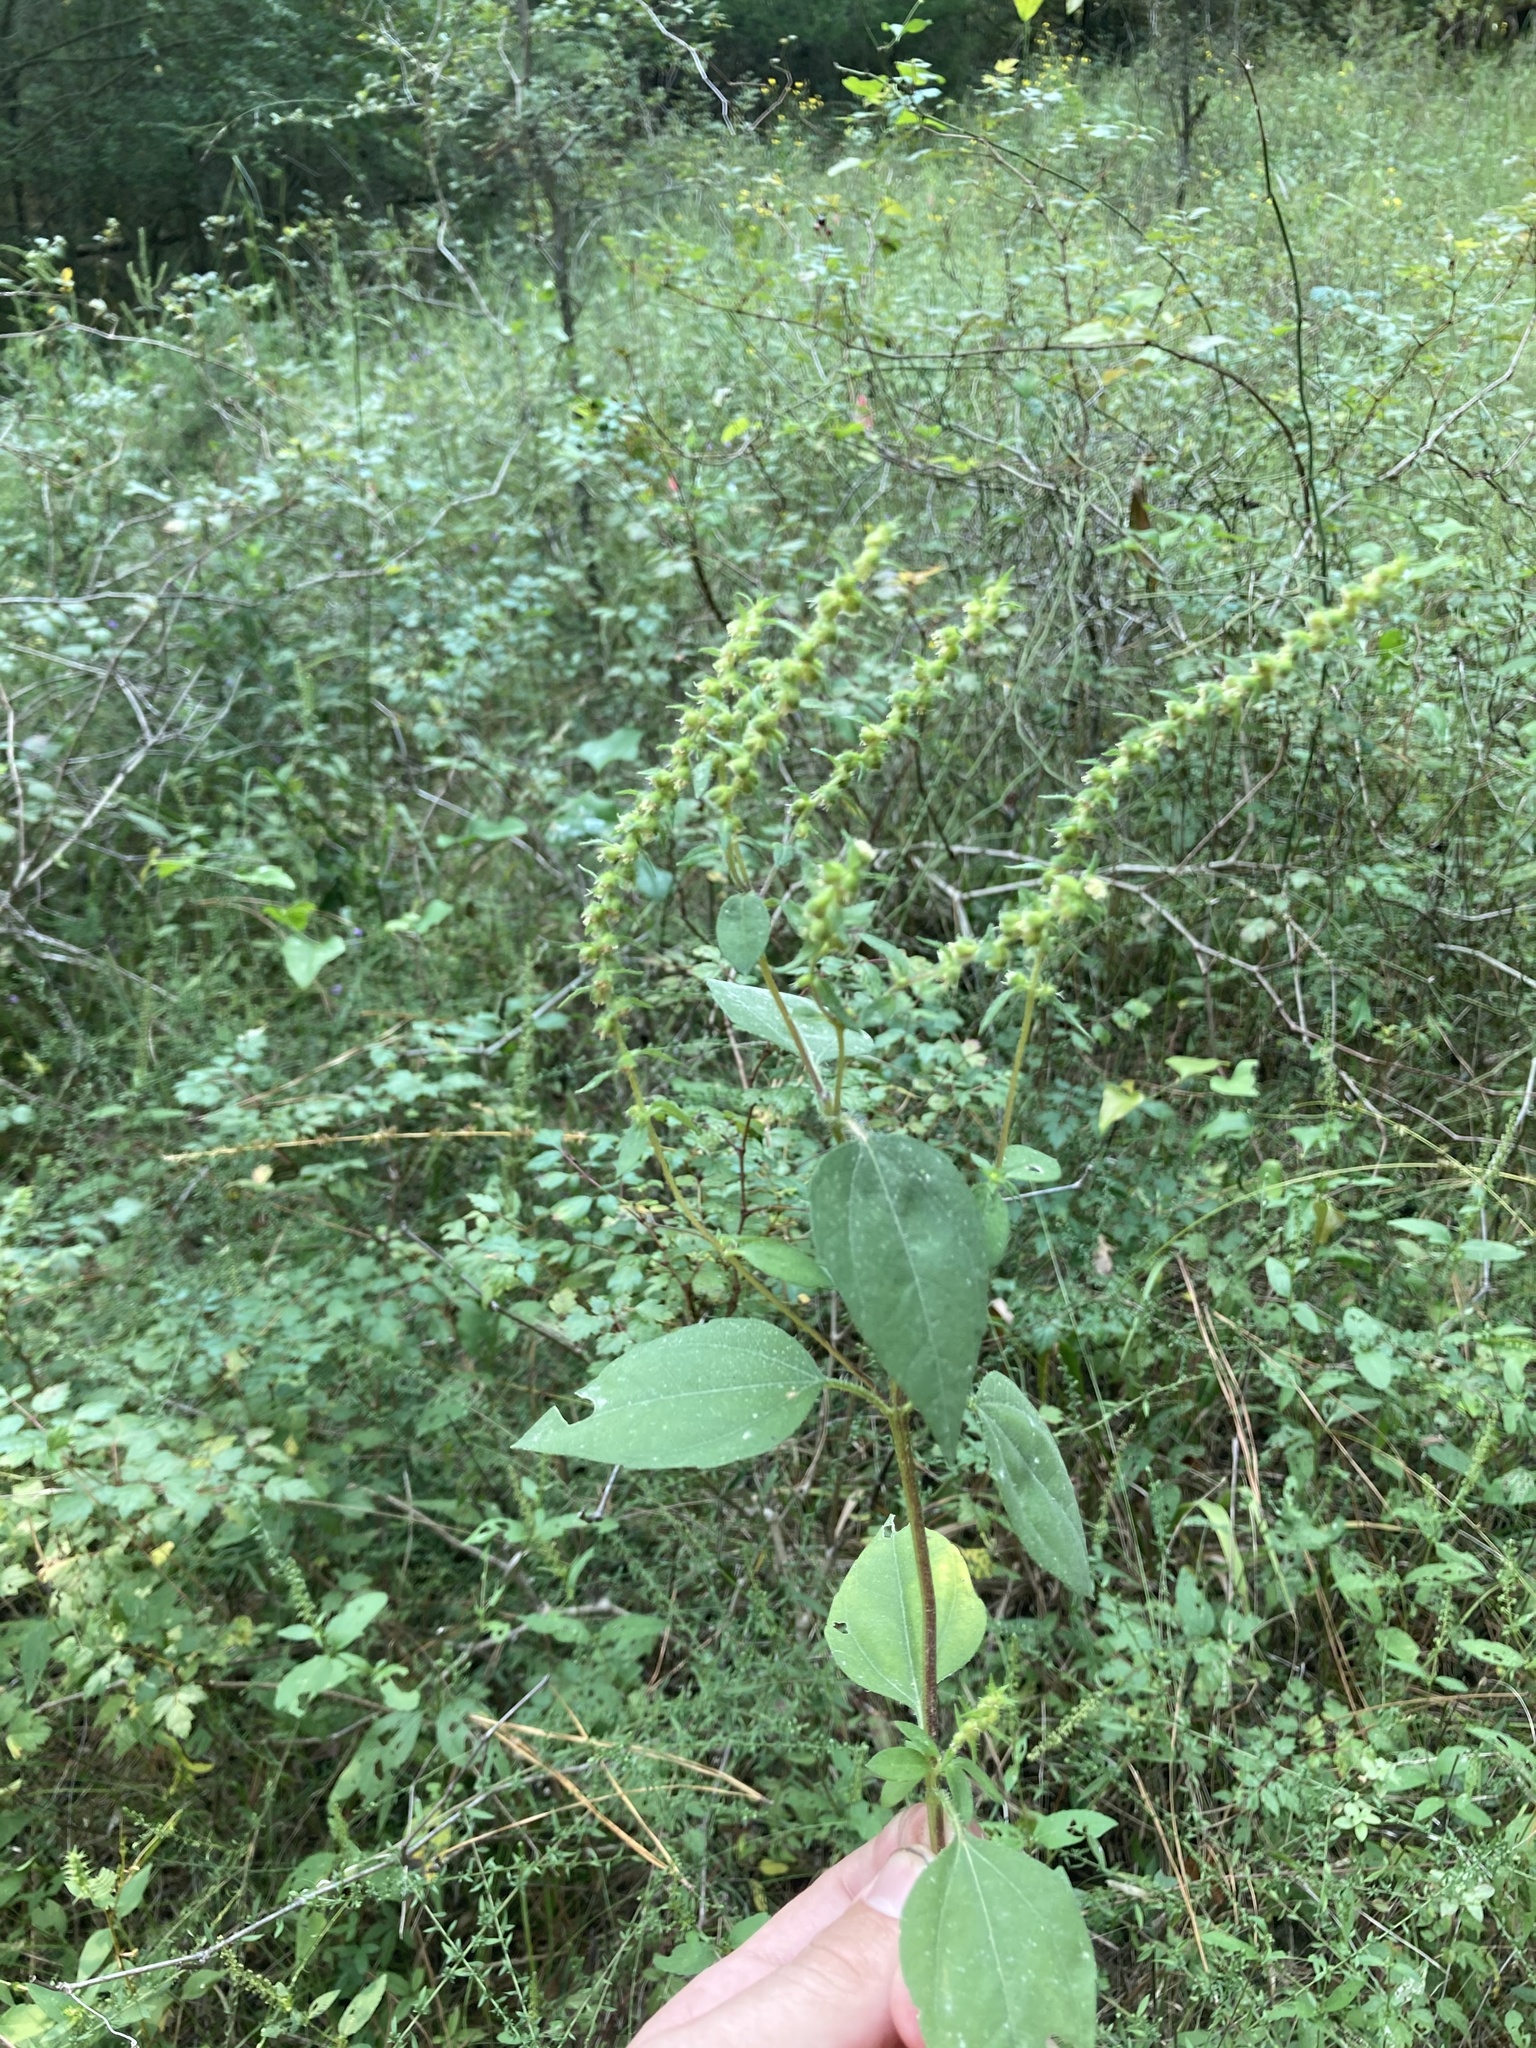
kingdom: Plantae
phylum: Tracheophyta
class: Magnoliopsida
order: Asterales
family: Asteraceae
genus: Iva
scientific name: Iva annua
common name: Marsh-elder
